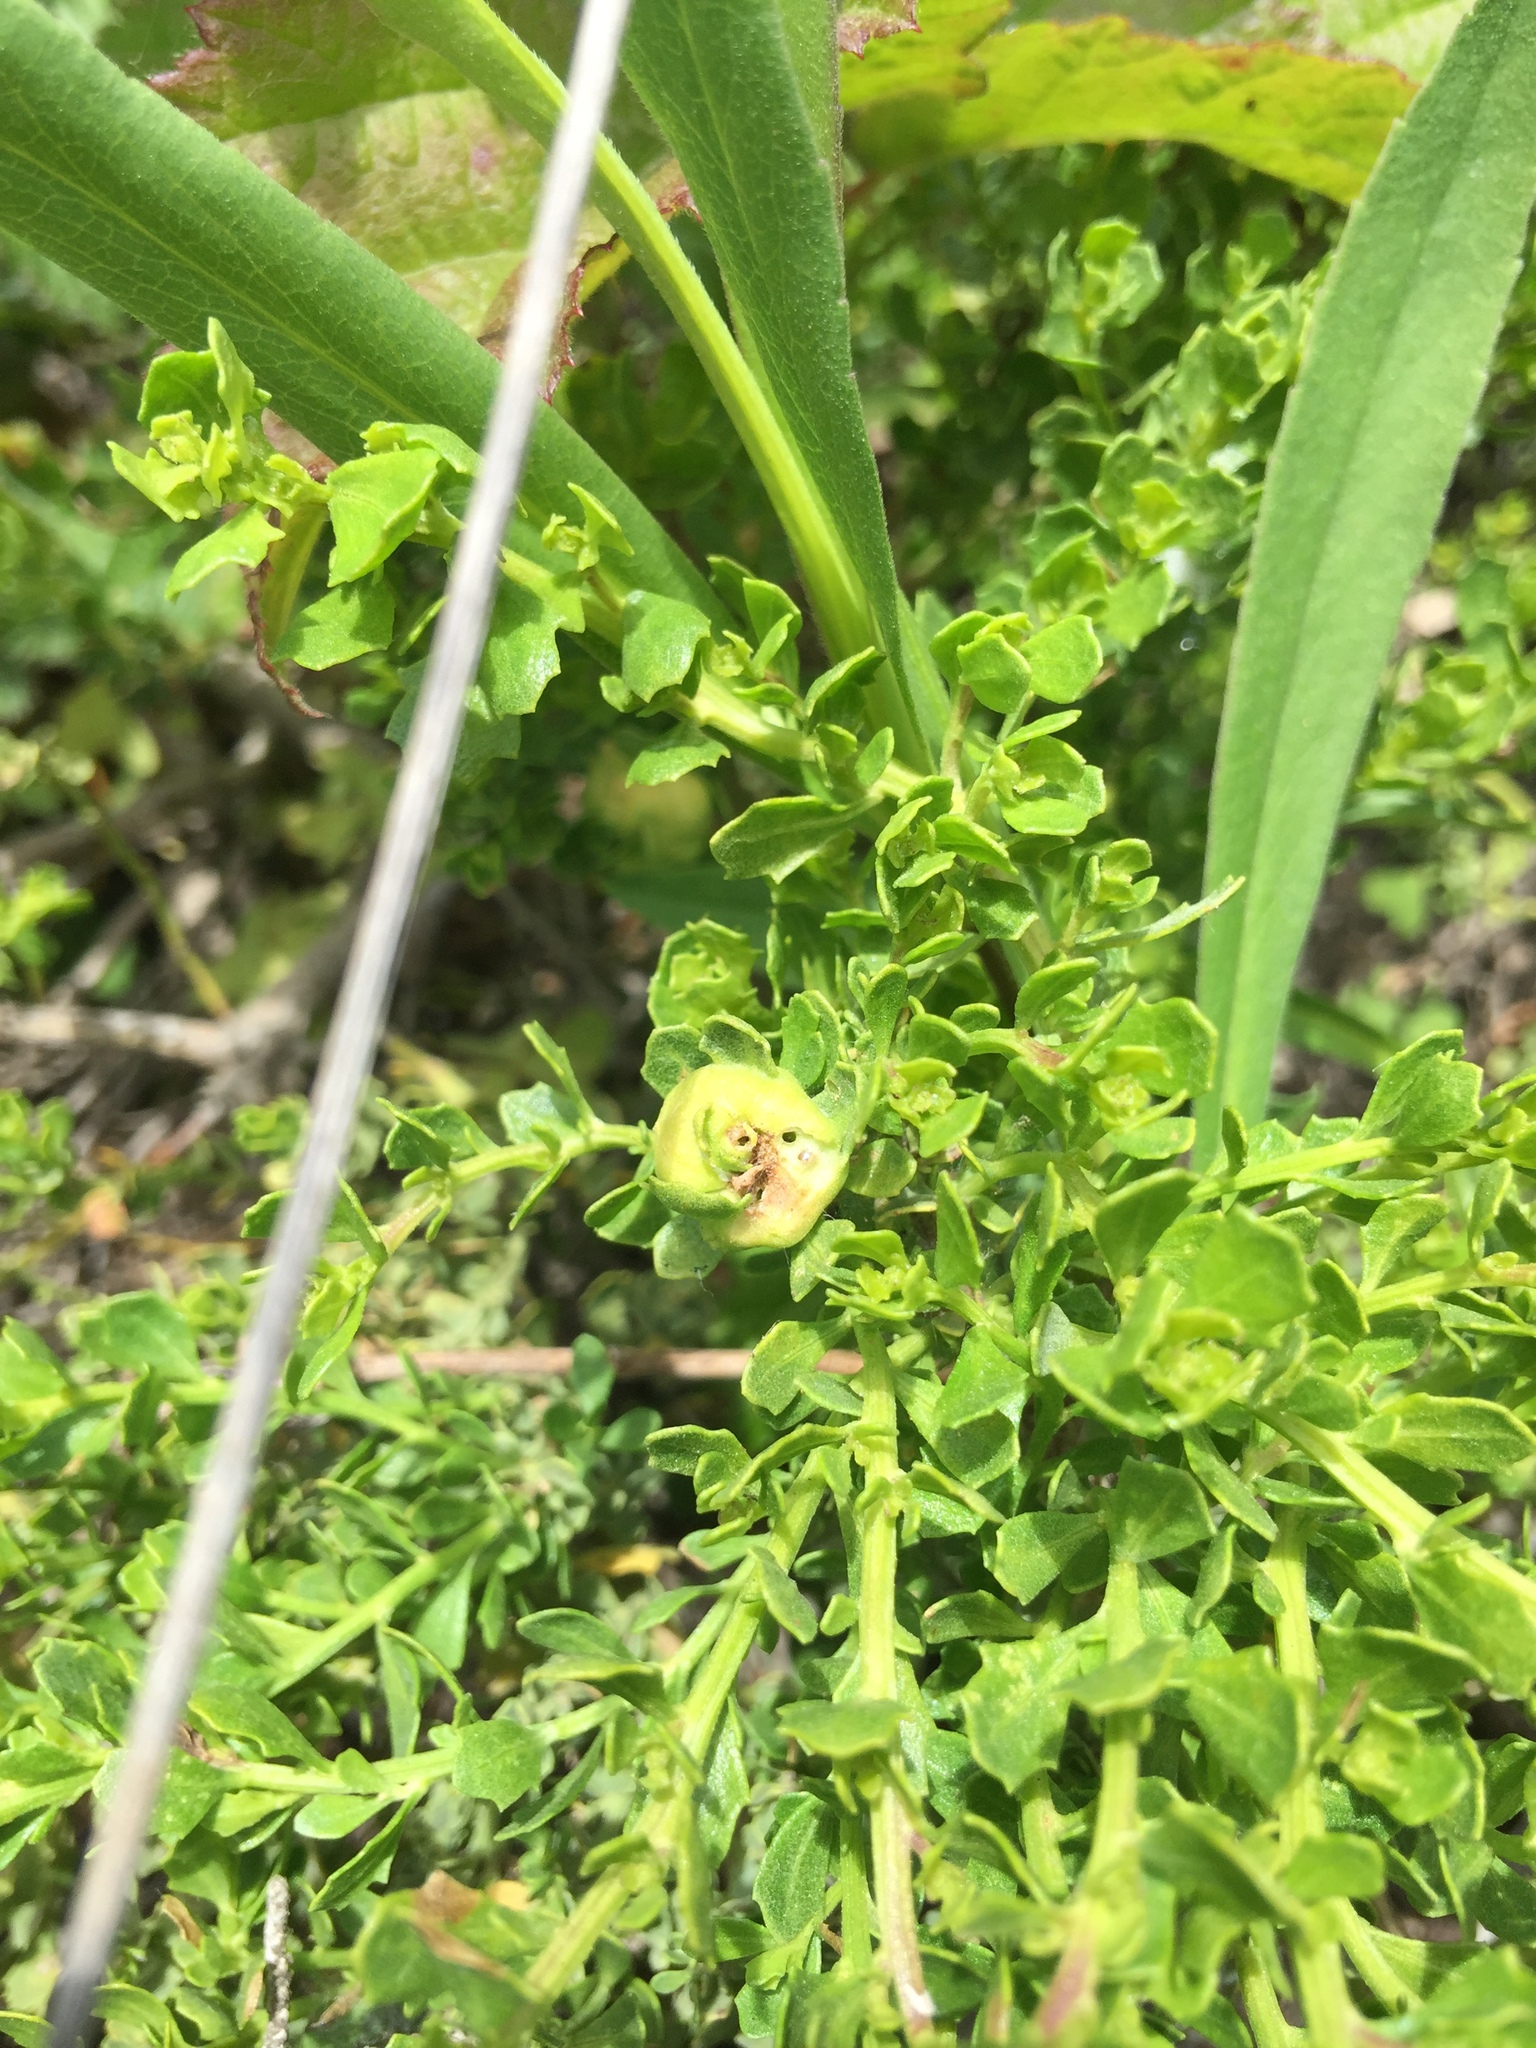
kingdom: Animalia
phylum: Arthropoda
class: Insecta
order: Diptera
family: Cecidomyiidae
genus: Rhopalomyia
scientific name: Rhopalomyia californica
